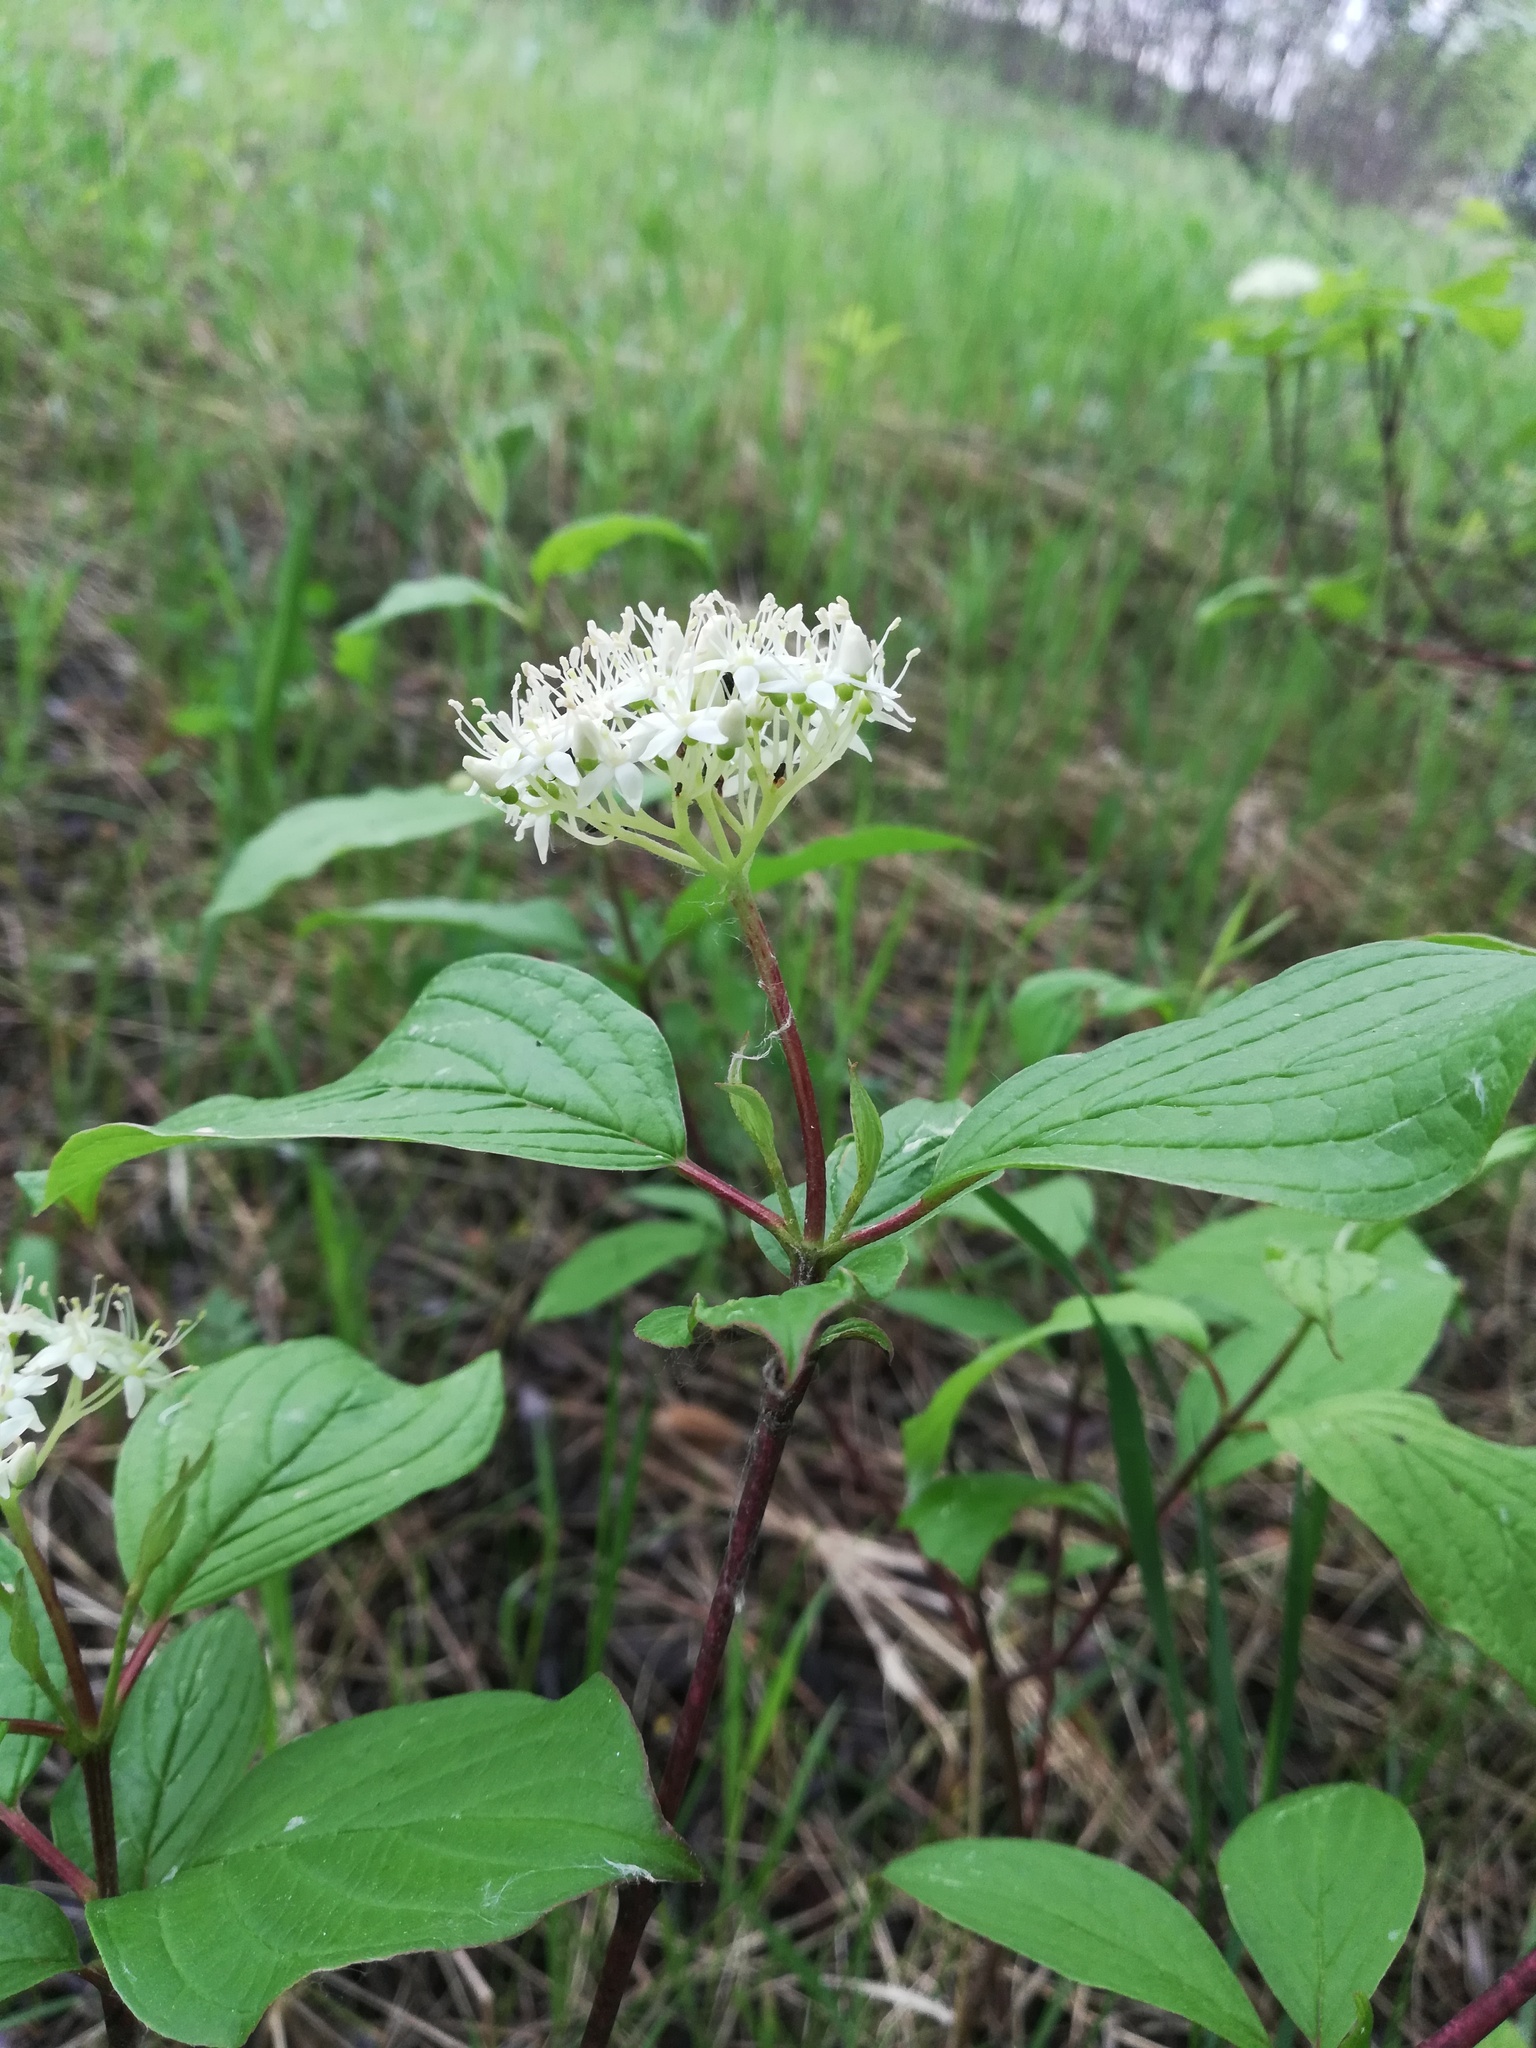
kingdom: Plantae
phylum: Tracheophyta
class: Magnoliopsida
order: Cornales
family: Cornaceae
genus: Cornus
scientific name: Cornus alba
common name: White dogwood
